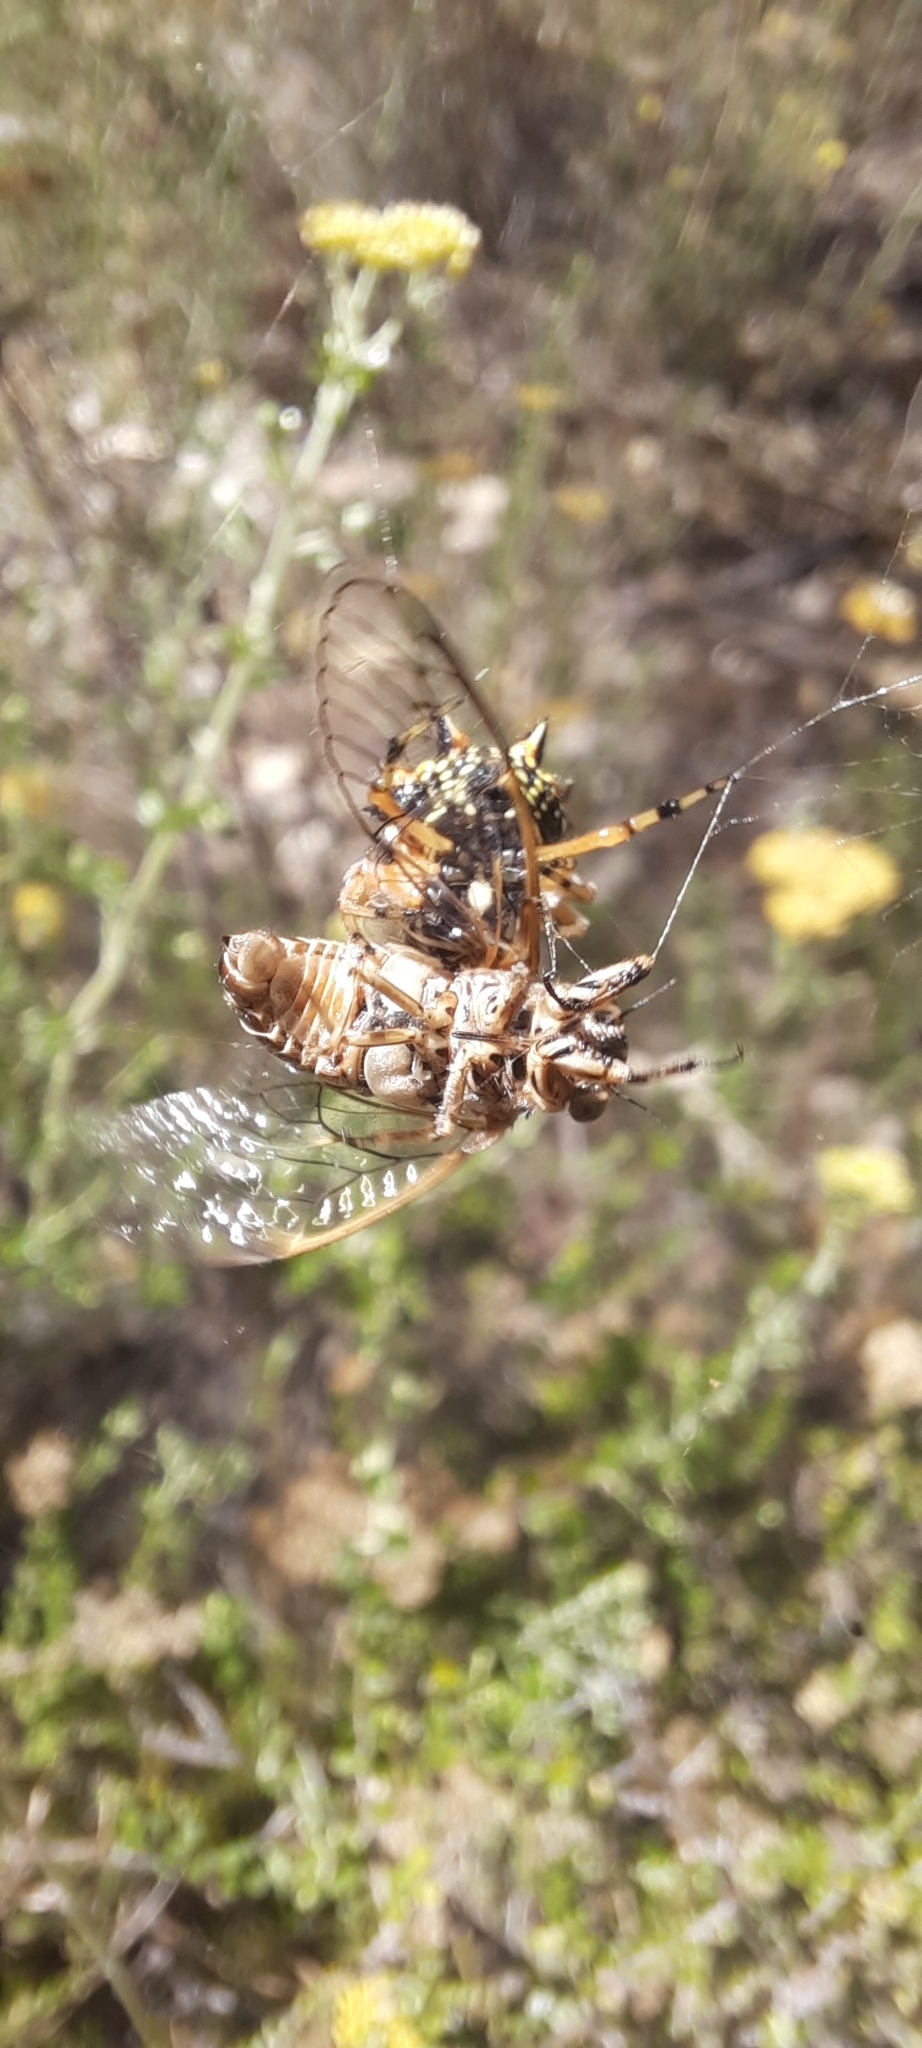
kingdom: Animalia
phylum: Arthropoda
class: Insecta
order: Hemiptera
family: Cicadidae
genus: Diemeniana
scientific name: Diemeniana euronotiana
